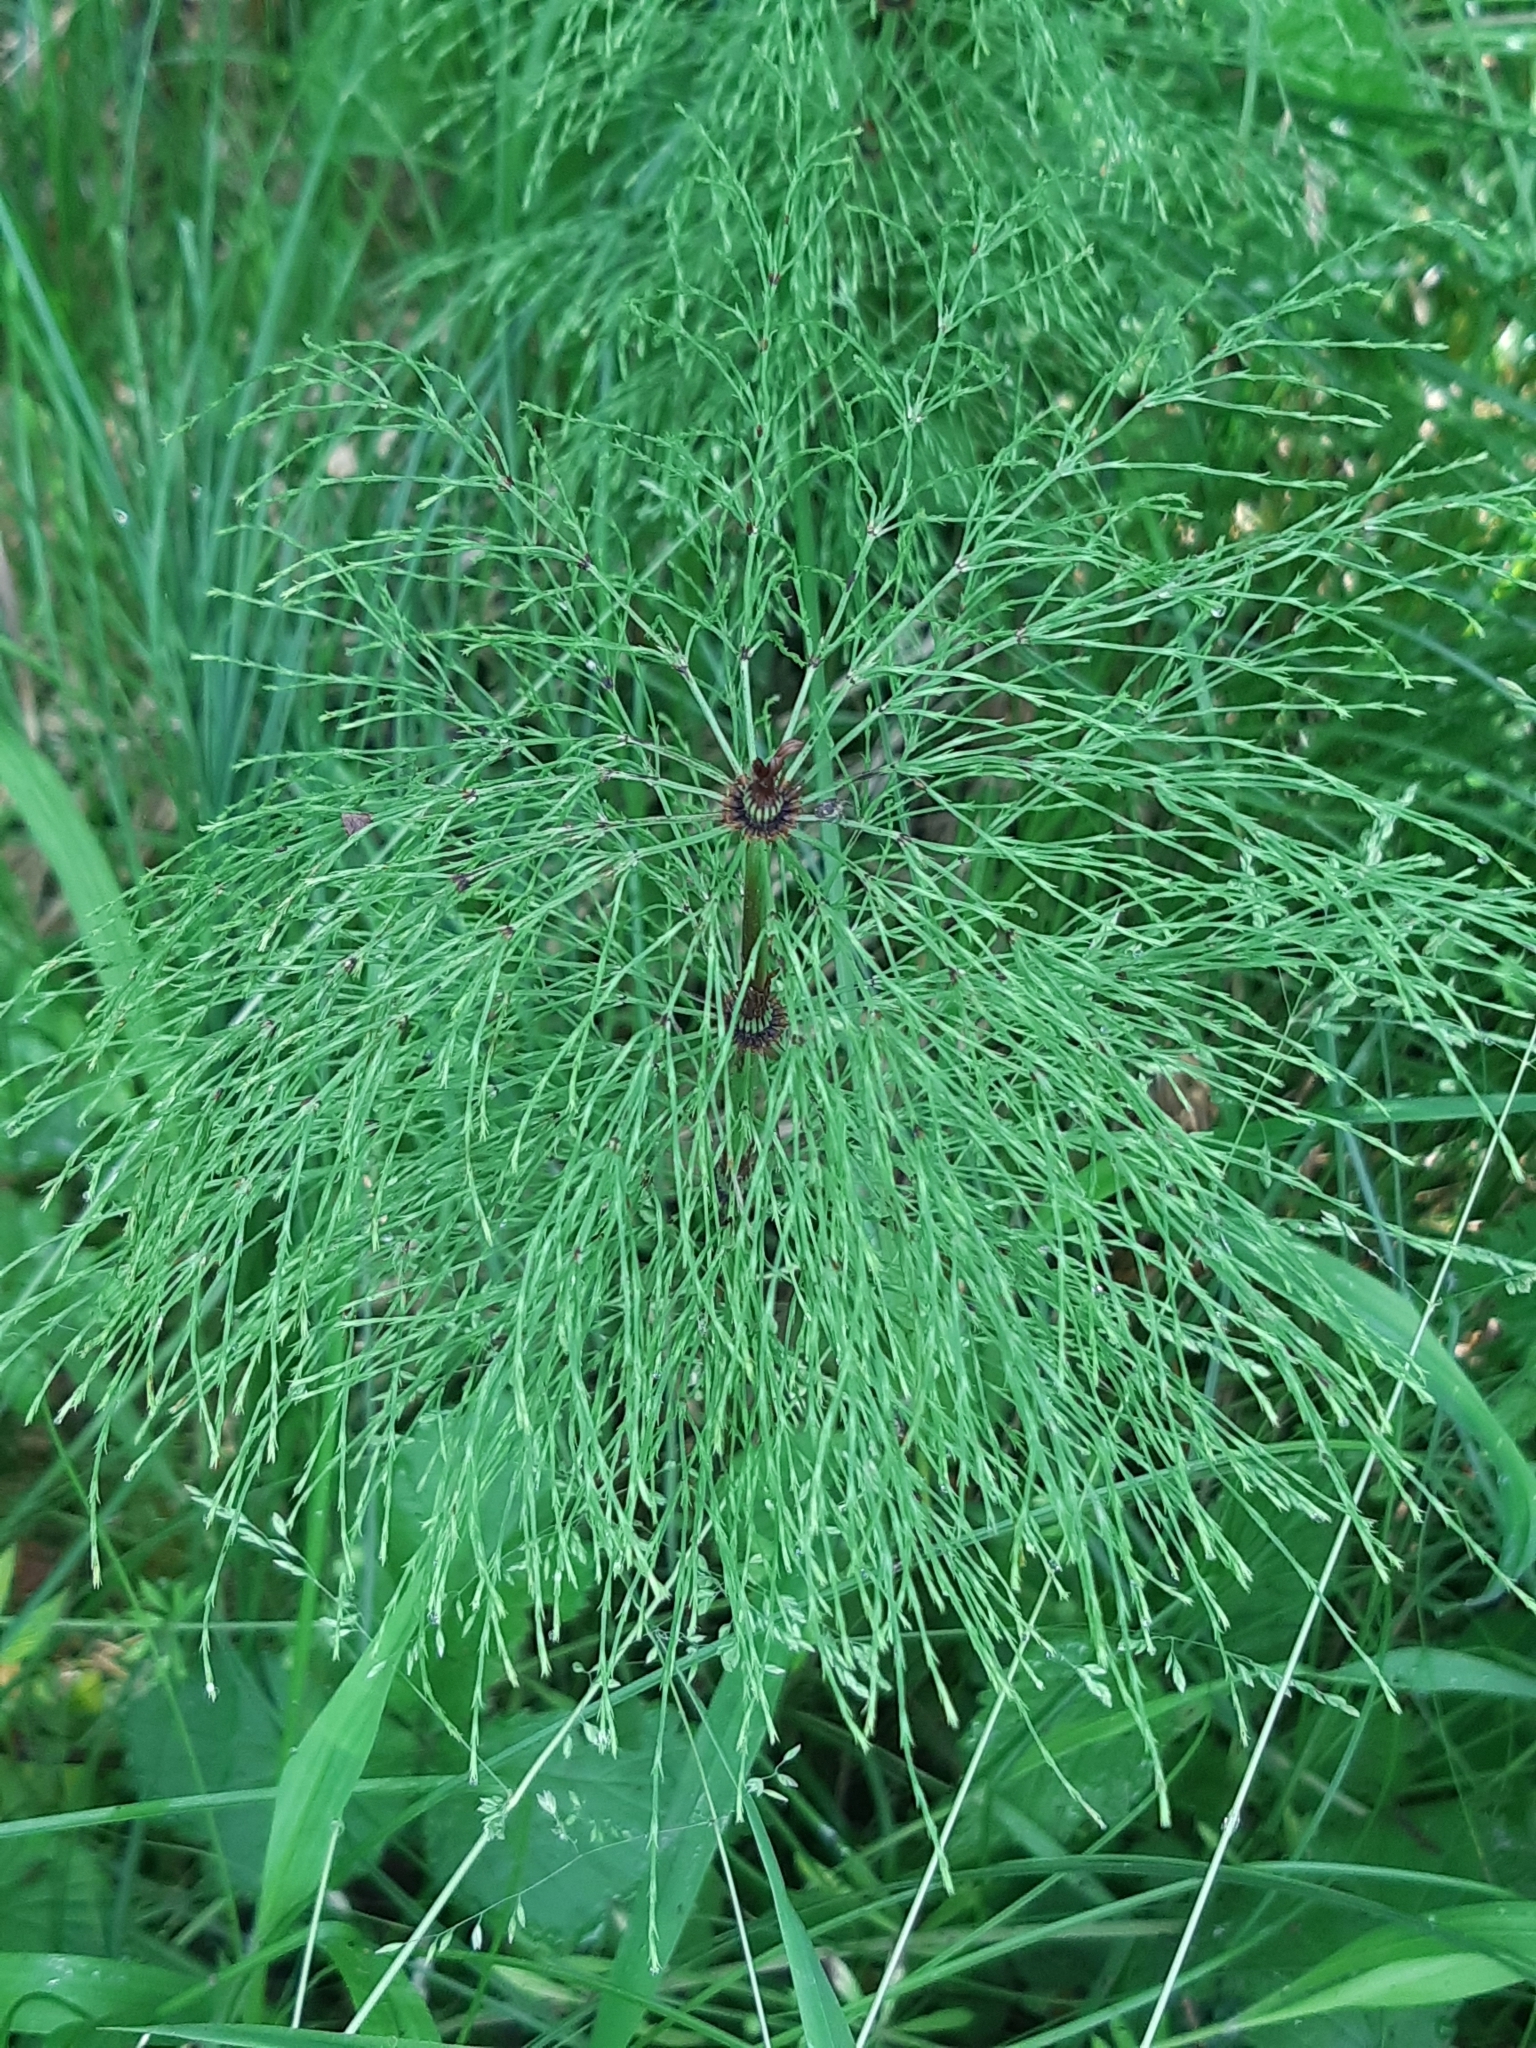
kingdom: Plantae
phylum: Tracheophyta
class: Polypodiopsida
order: Equisetales
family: Equisetaceae
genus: Equisetum
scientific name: Equisetum sylvaticum
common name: Wood horsetail
